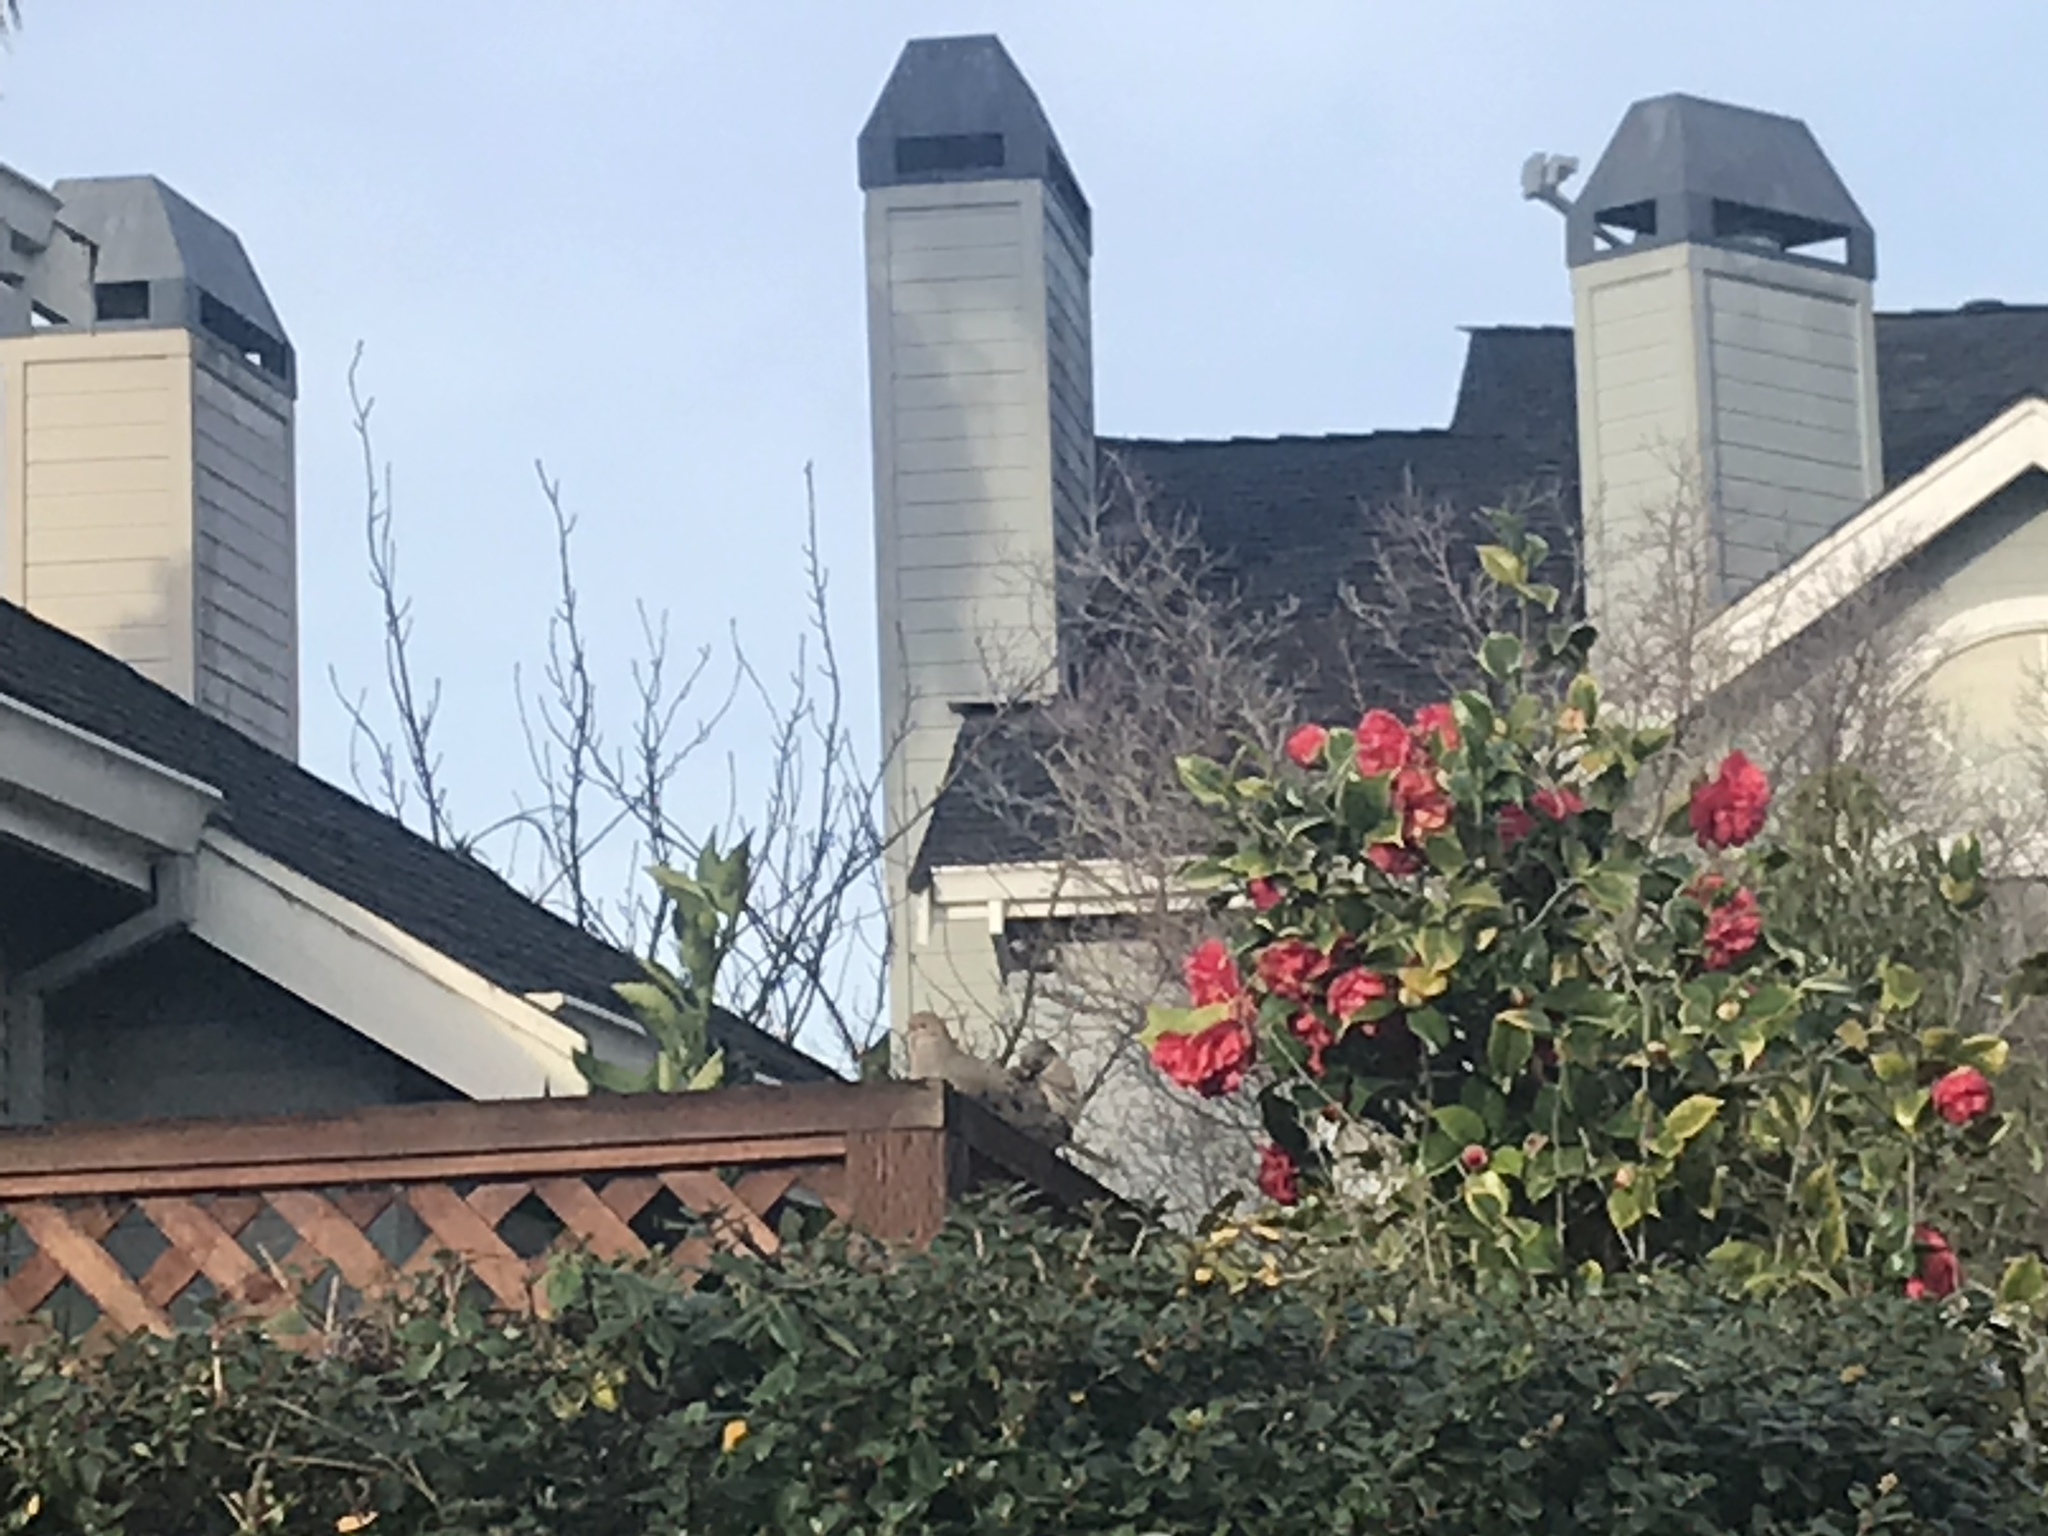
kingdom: Animalia
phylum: Chordata
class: Aves
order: Columbiformes
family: Columbidae
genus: Zenaida
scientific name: Zenaida macroura
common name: Mourning dove
